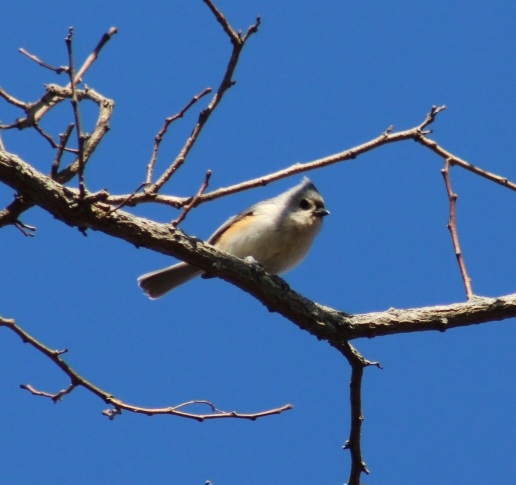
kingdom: Animalia
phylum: Chordata
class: Aves
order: Passeriformes
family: Paridae
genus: Baeolophus
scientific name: Baeolophus bicolor
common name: Tufted titmouse
